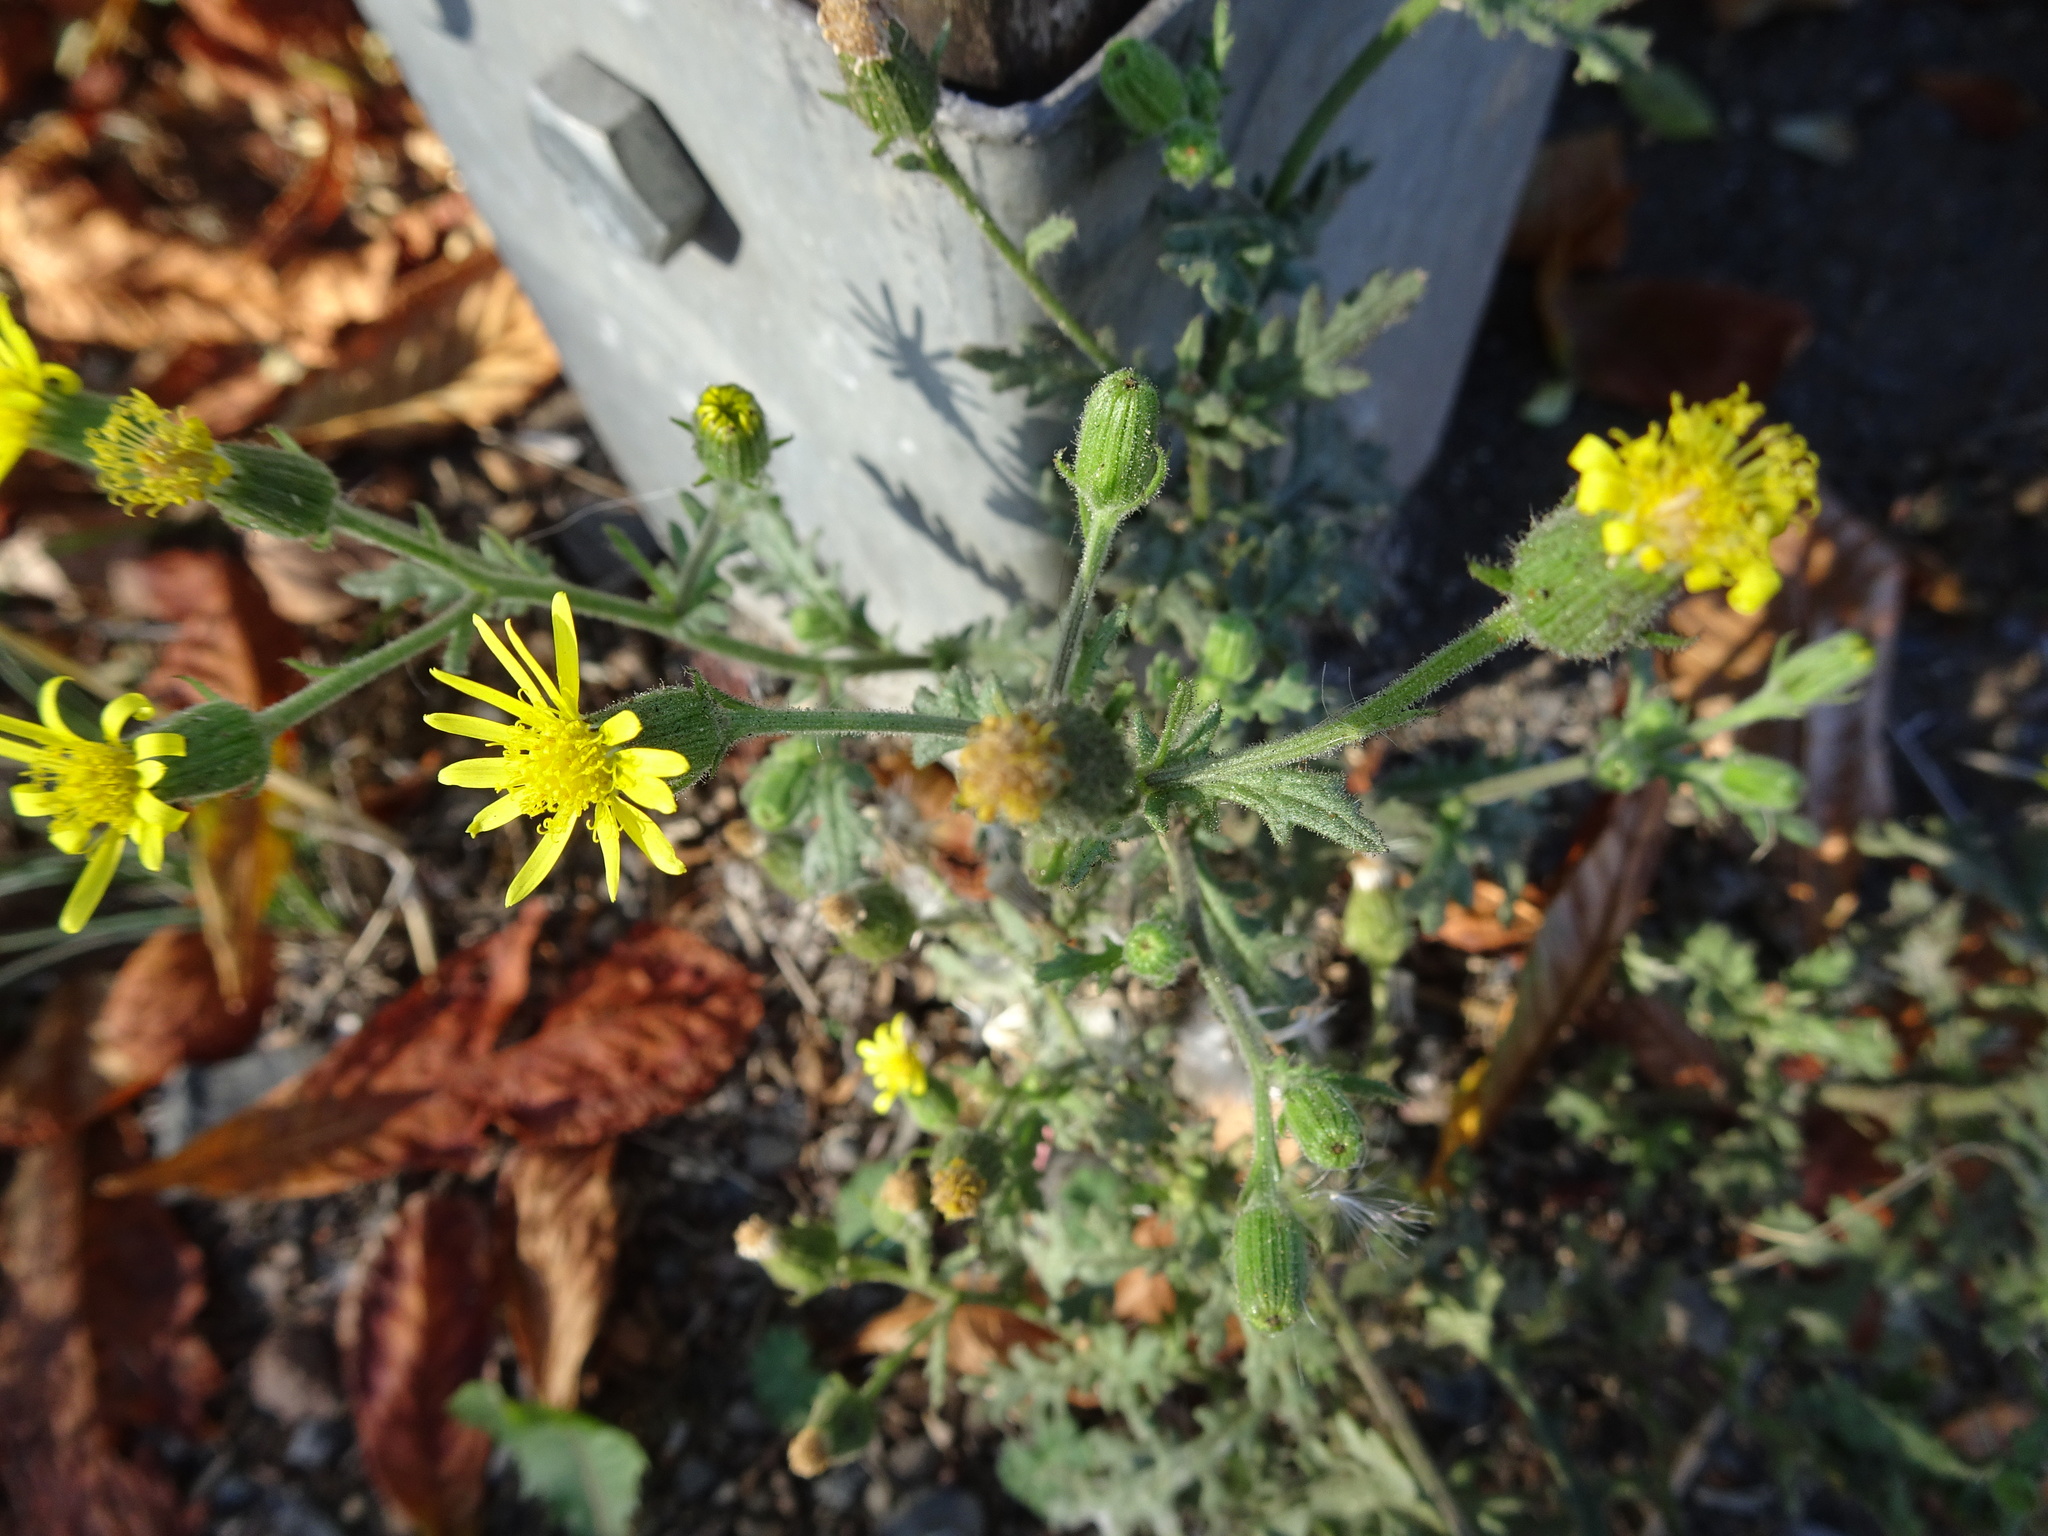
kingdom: Plantae
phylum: Tracheophyta
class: Magnoliopsida
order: Asterales
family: Asteraceae
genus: Senecio
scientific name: Senecio viscosus
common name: Sticky groundsel
